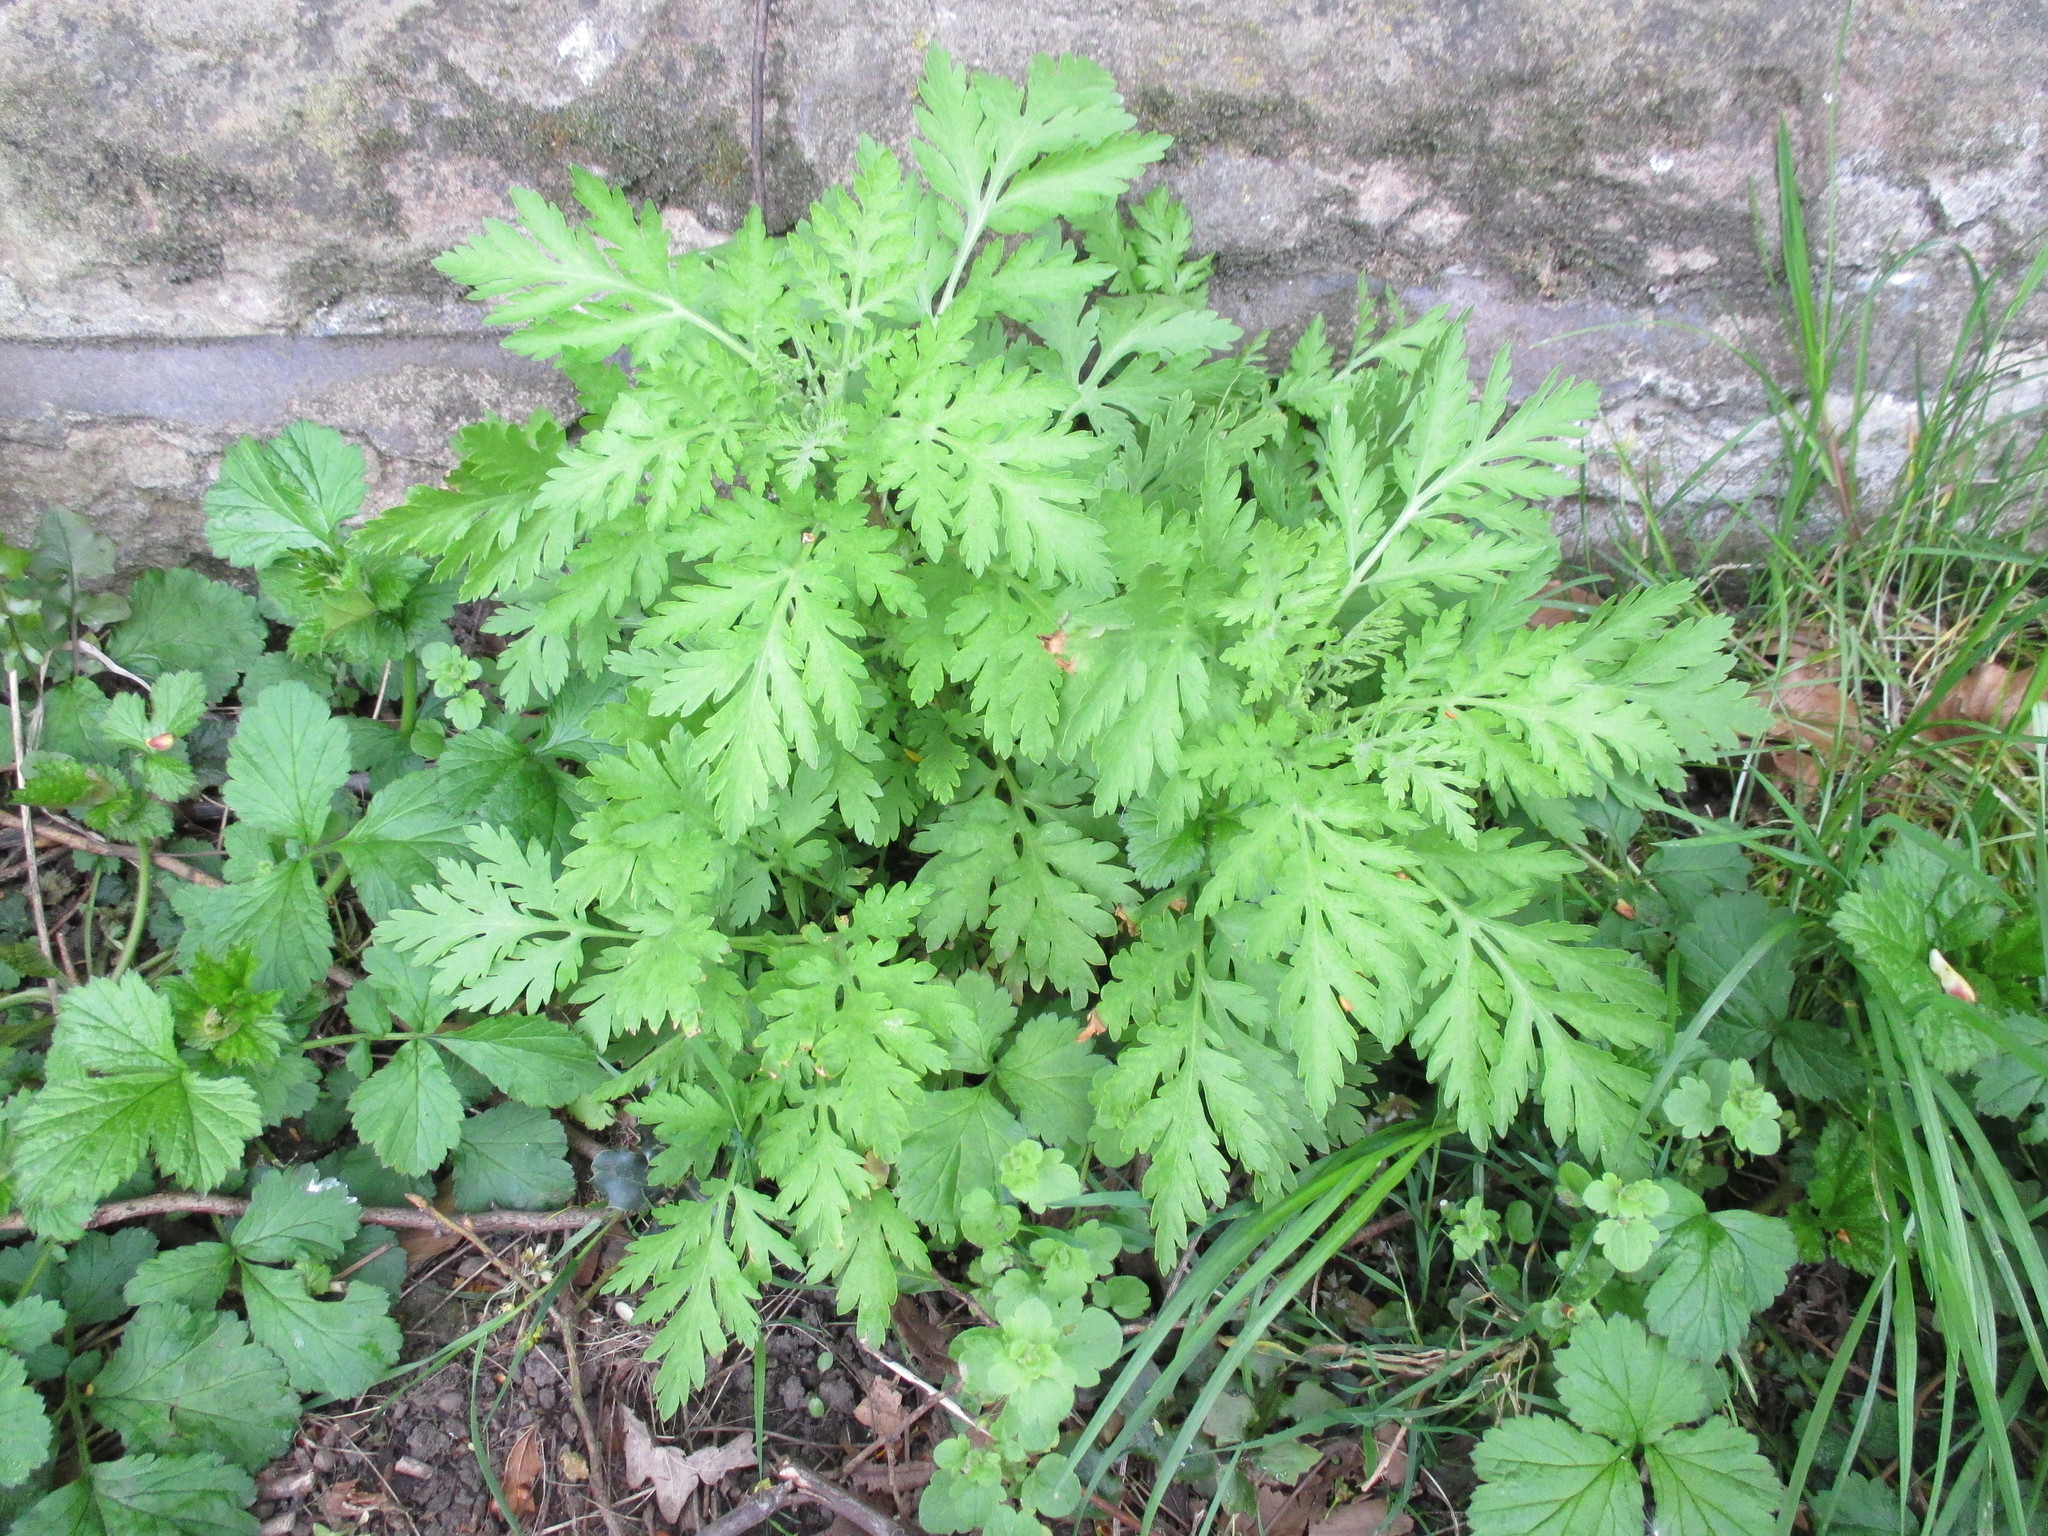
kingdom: Plantae
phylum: Tracheophyta
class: Magnoliopsida
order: Asterales
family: Asteraceae
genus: Tanacetum
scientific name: Tanacetum vulgare
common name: Common tansy
